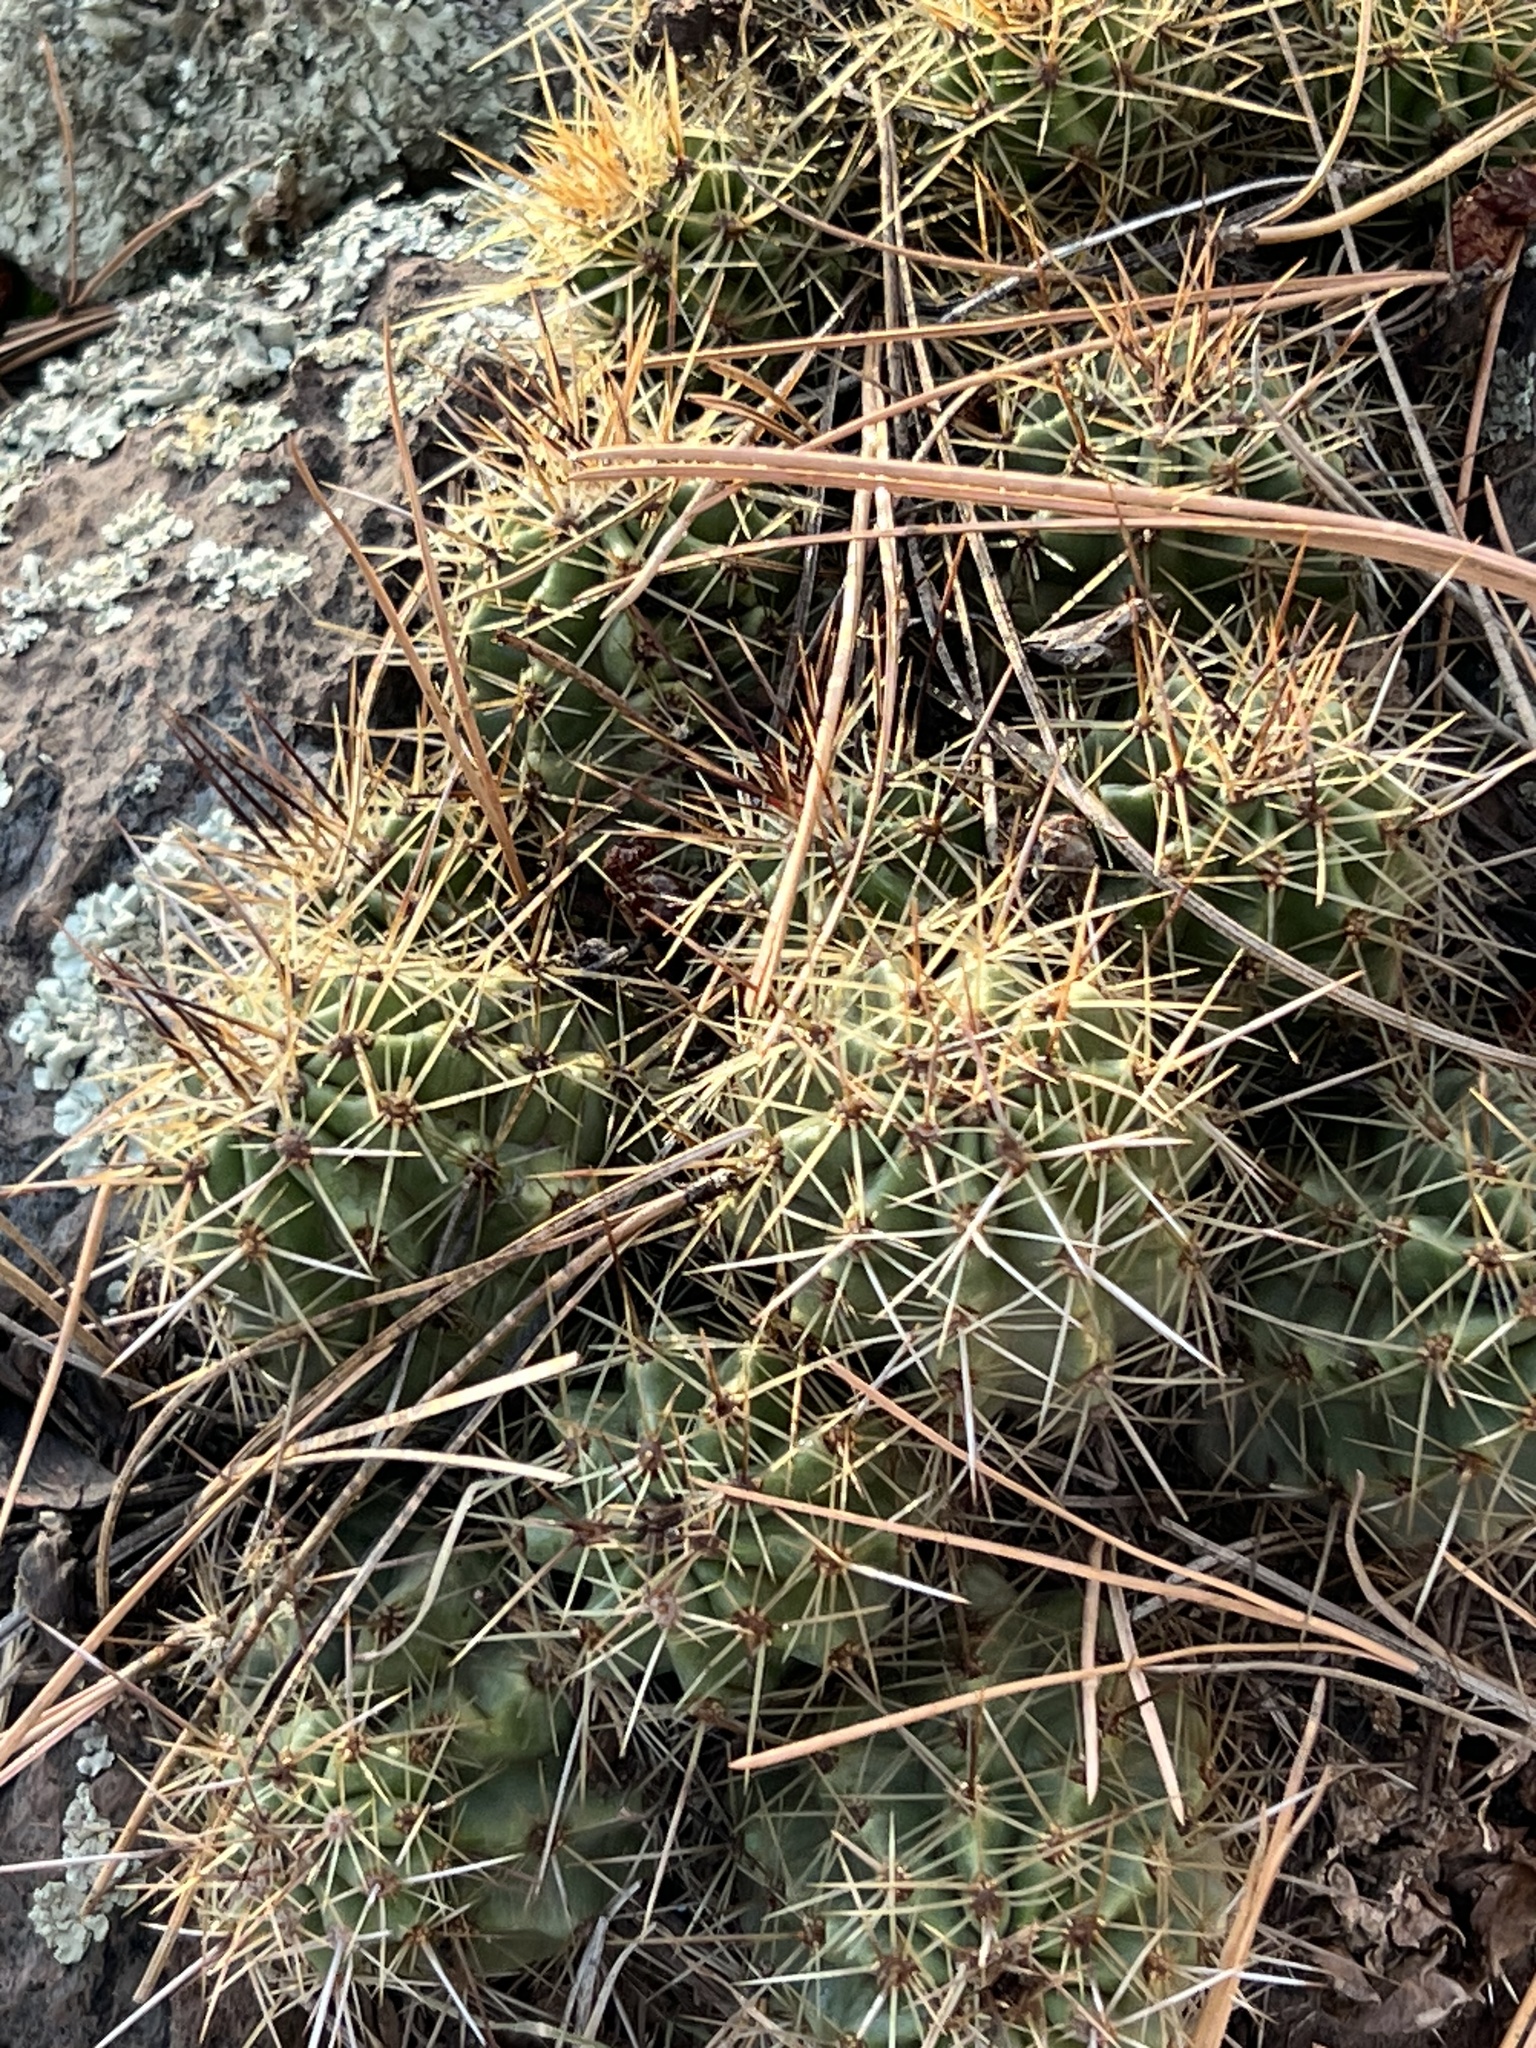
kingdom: Plantae
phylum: Tracheophyta
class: Magnoliopsida
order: Caryophyllales
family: Cactaceae
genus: Echinocereus
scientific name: Echinocereus bakeri
